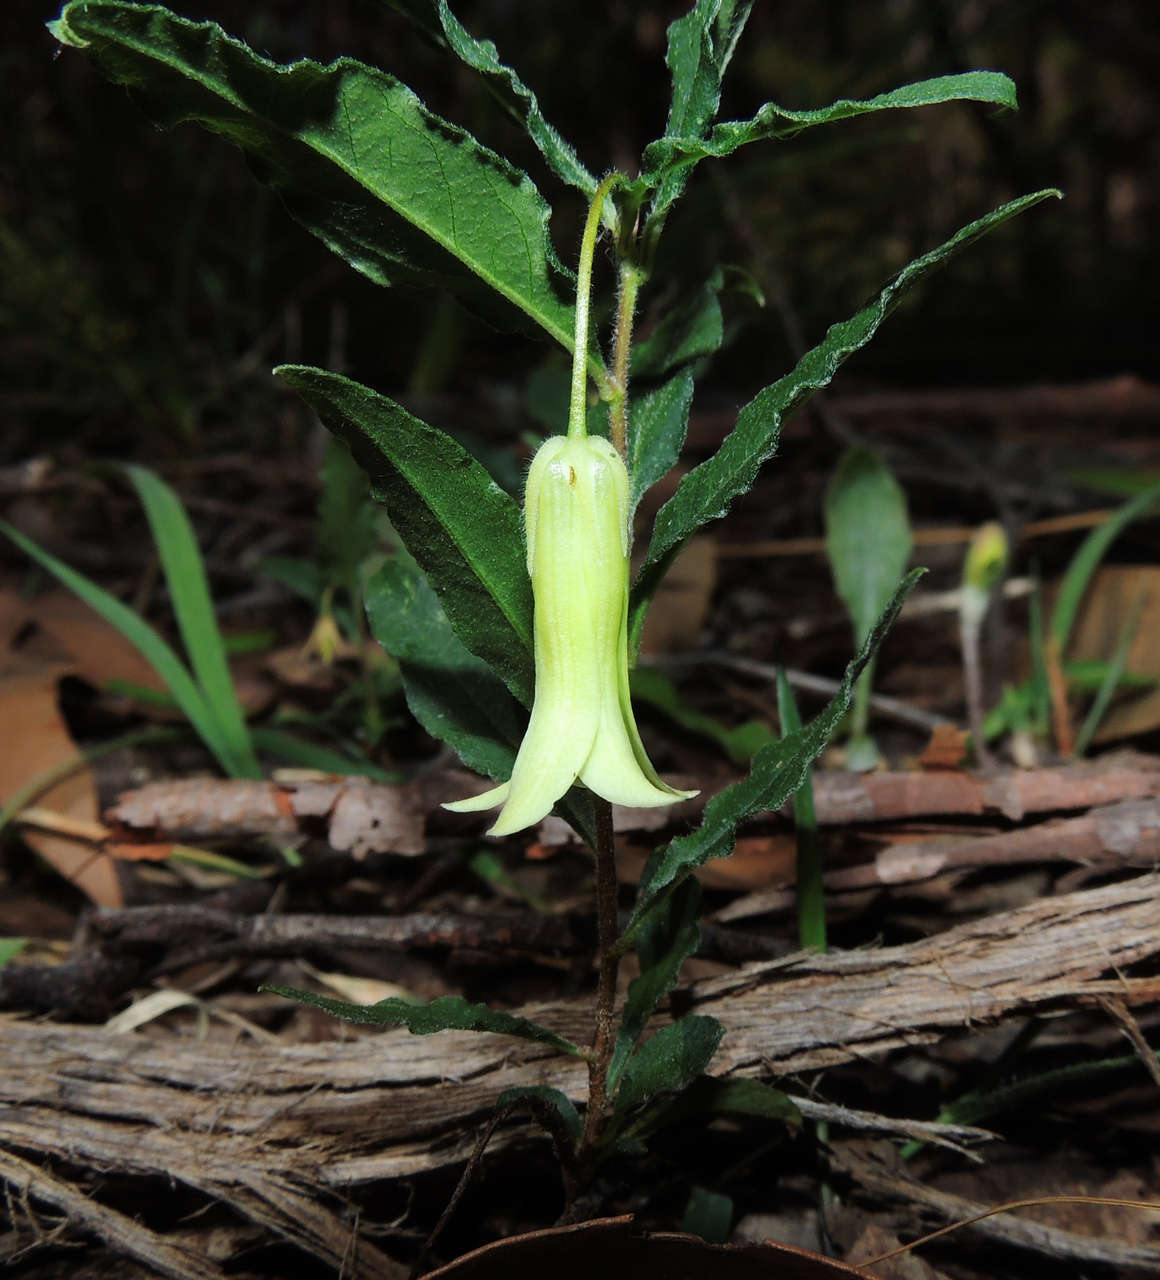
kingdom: Plantae
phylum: Tracheophyta
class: Magnoliopsida
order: Apiales
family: Pittosporaceae
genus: Billardiera
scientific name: Billardiera mutabilis
